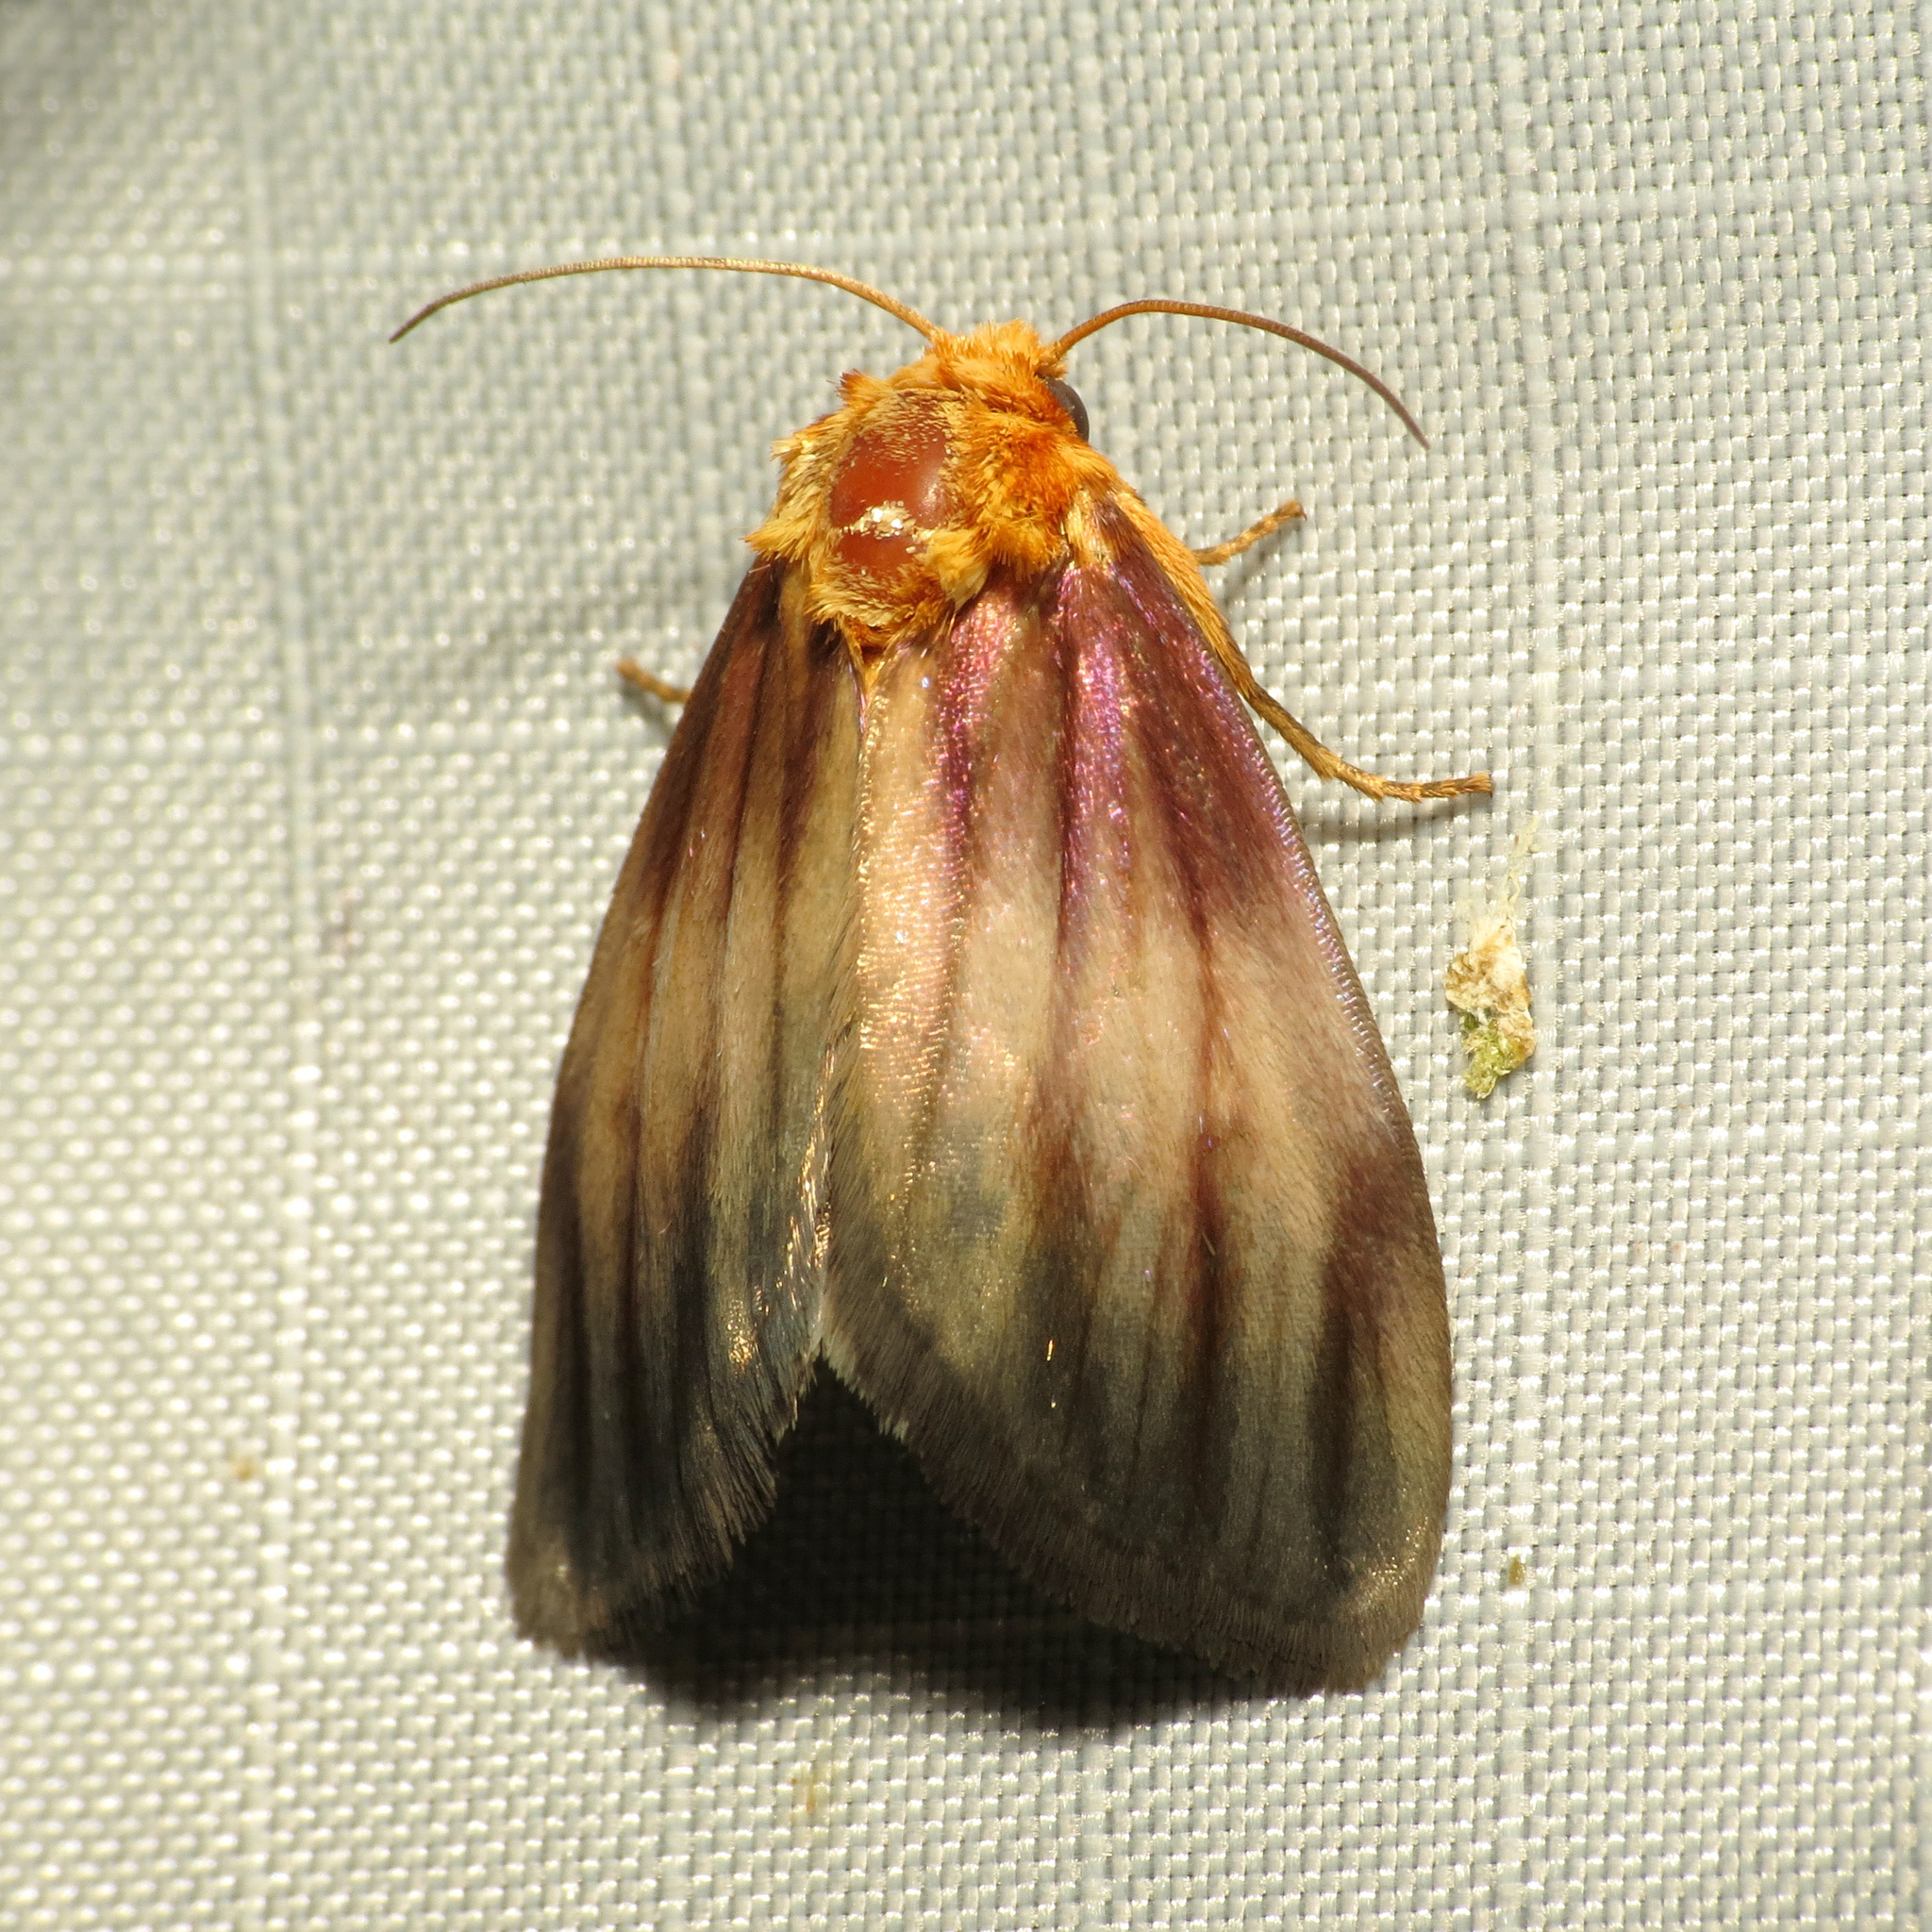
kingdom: Animalia
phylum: Arthropoda
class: Insecta
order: Lepidoptera
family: Noctuidae
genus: Antaplaga
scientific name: Antaplaga plesioglauca
